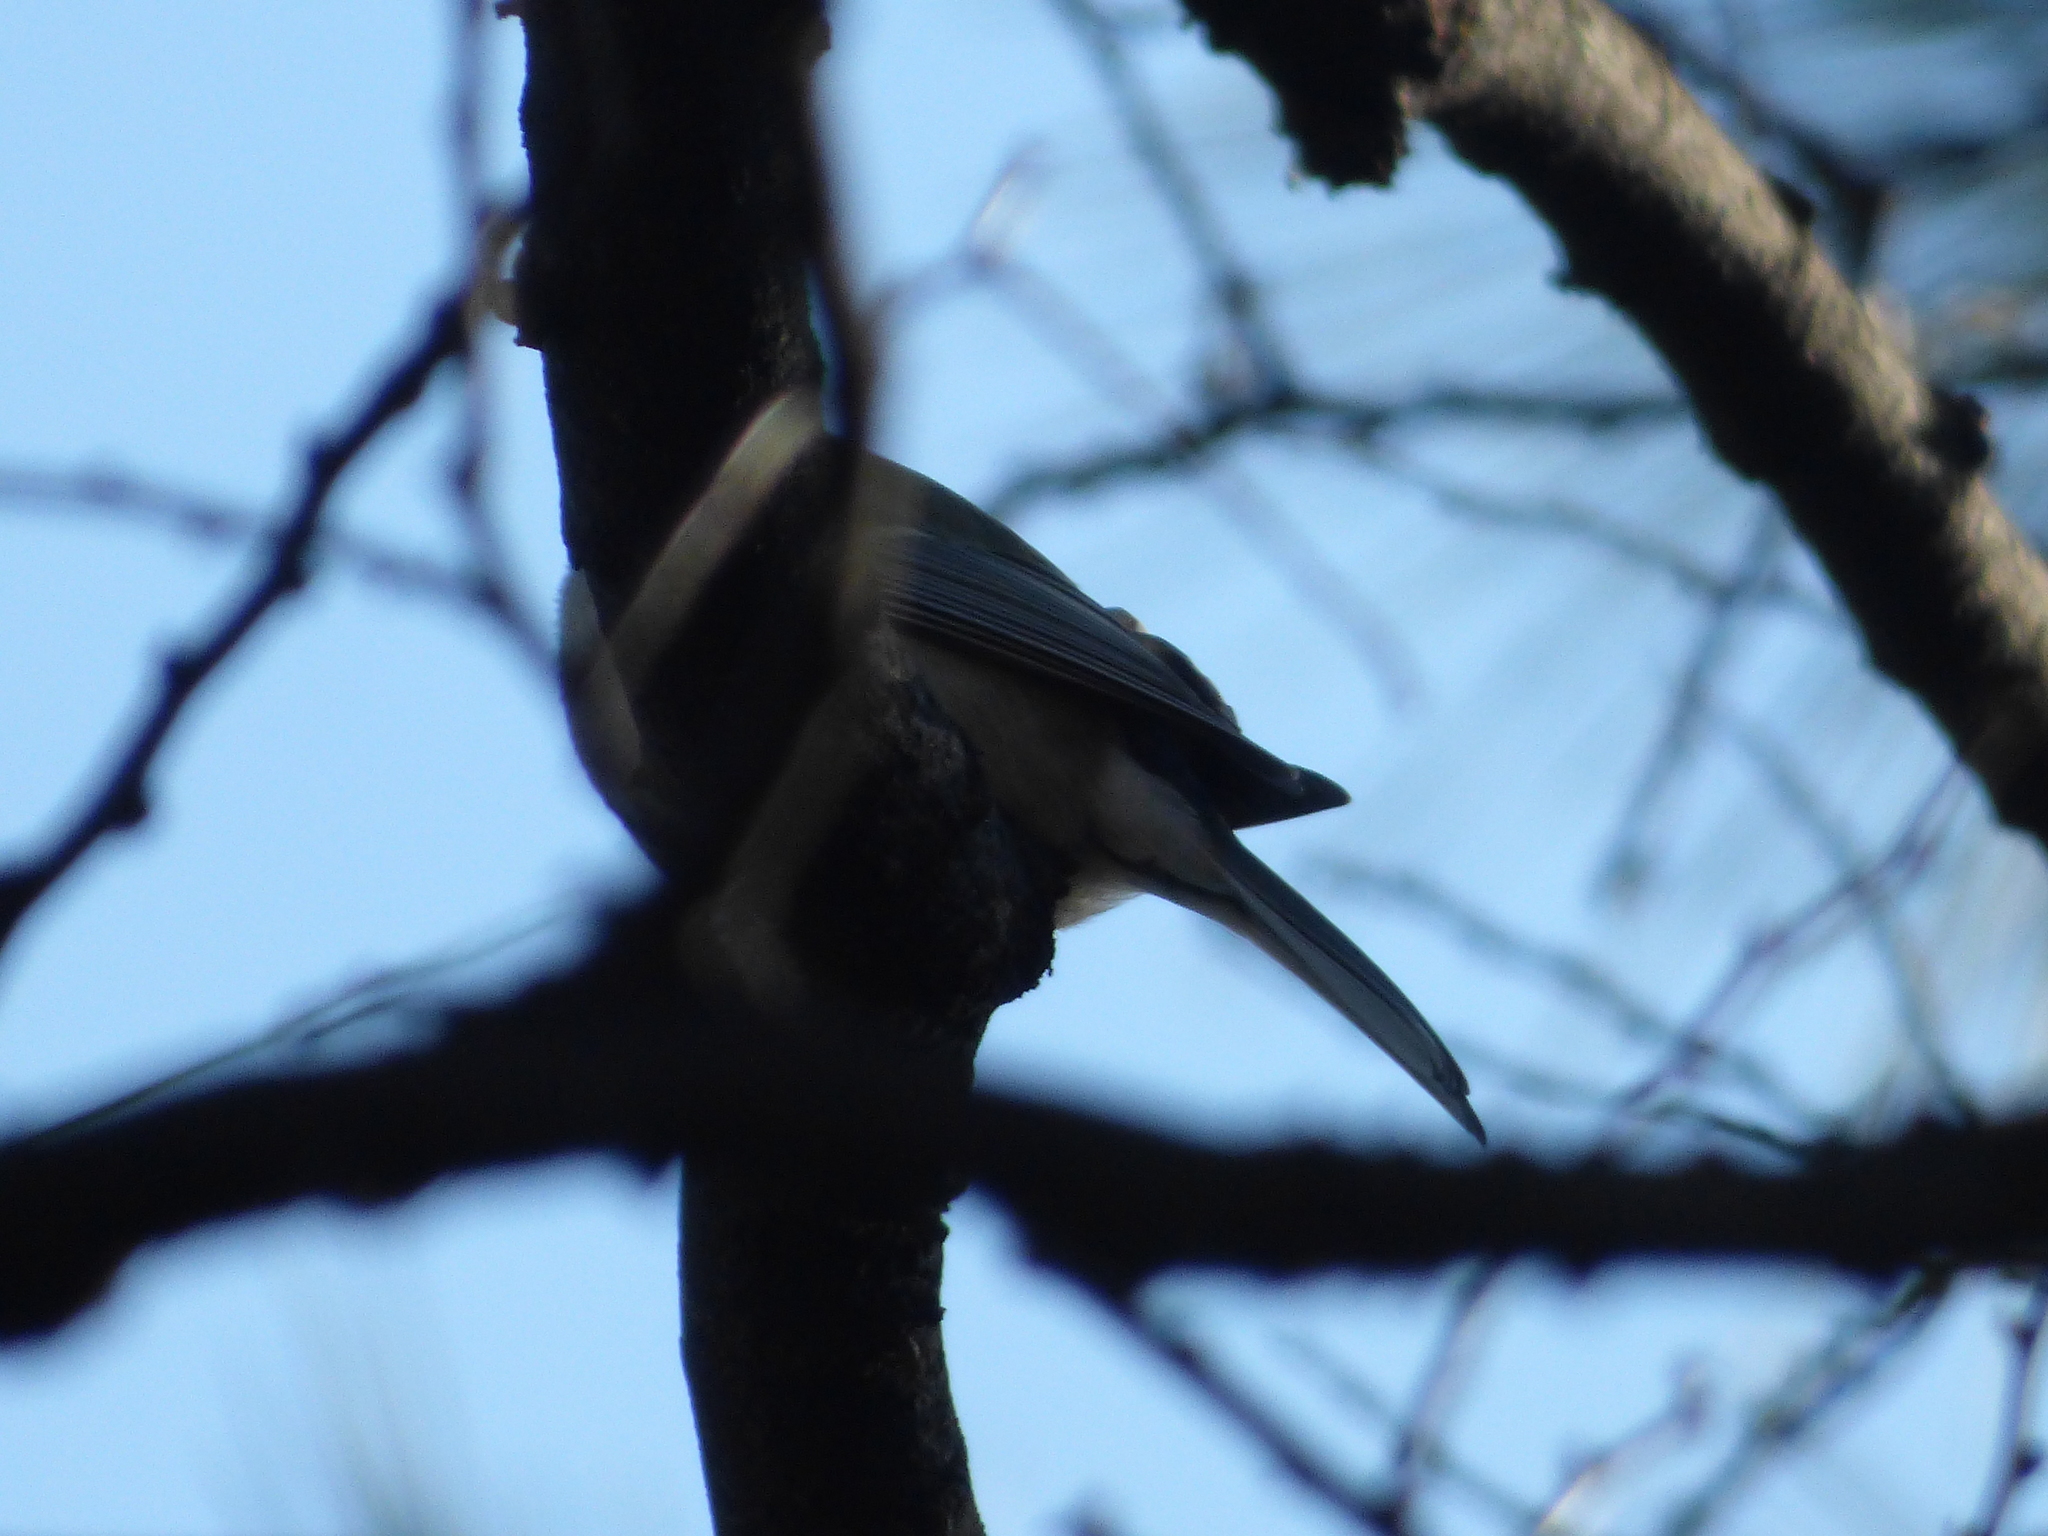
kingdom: Animalia
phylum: Chordata
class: Aves
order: Passeriformes
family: Paridae
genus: Parus
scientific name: Parus minor
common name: Japanese tit
